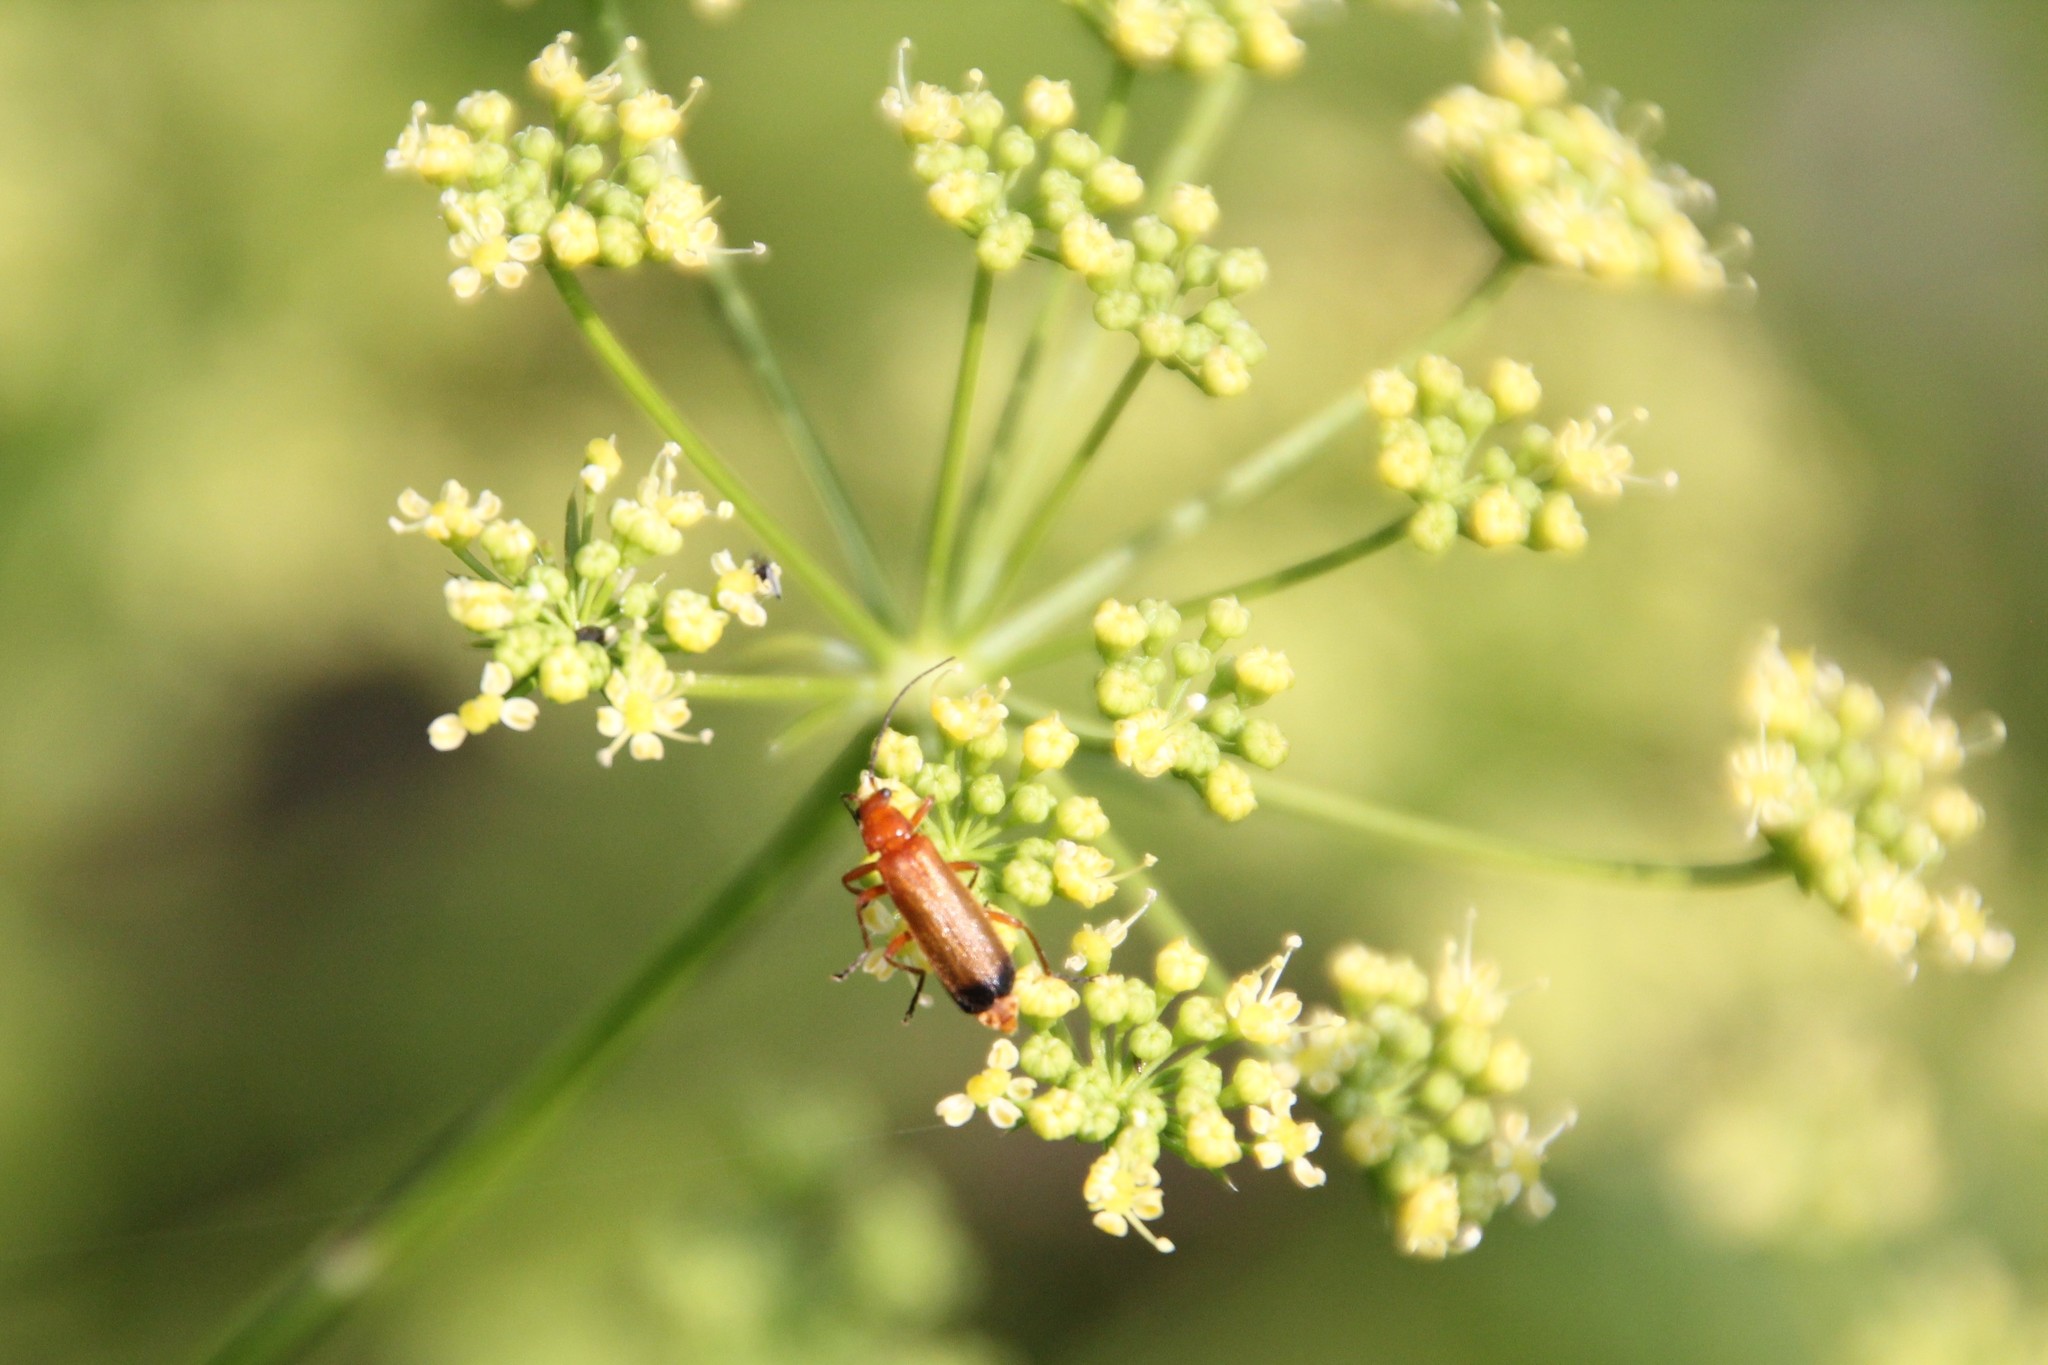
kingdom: Animalia
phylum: Arthropoda
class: Insecta
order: Coleoptera
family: Cantharidae
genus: Rhagonycha
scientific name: Rhagonycha fulva
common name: Common red soldier beetle
